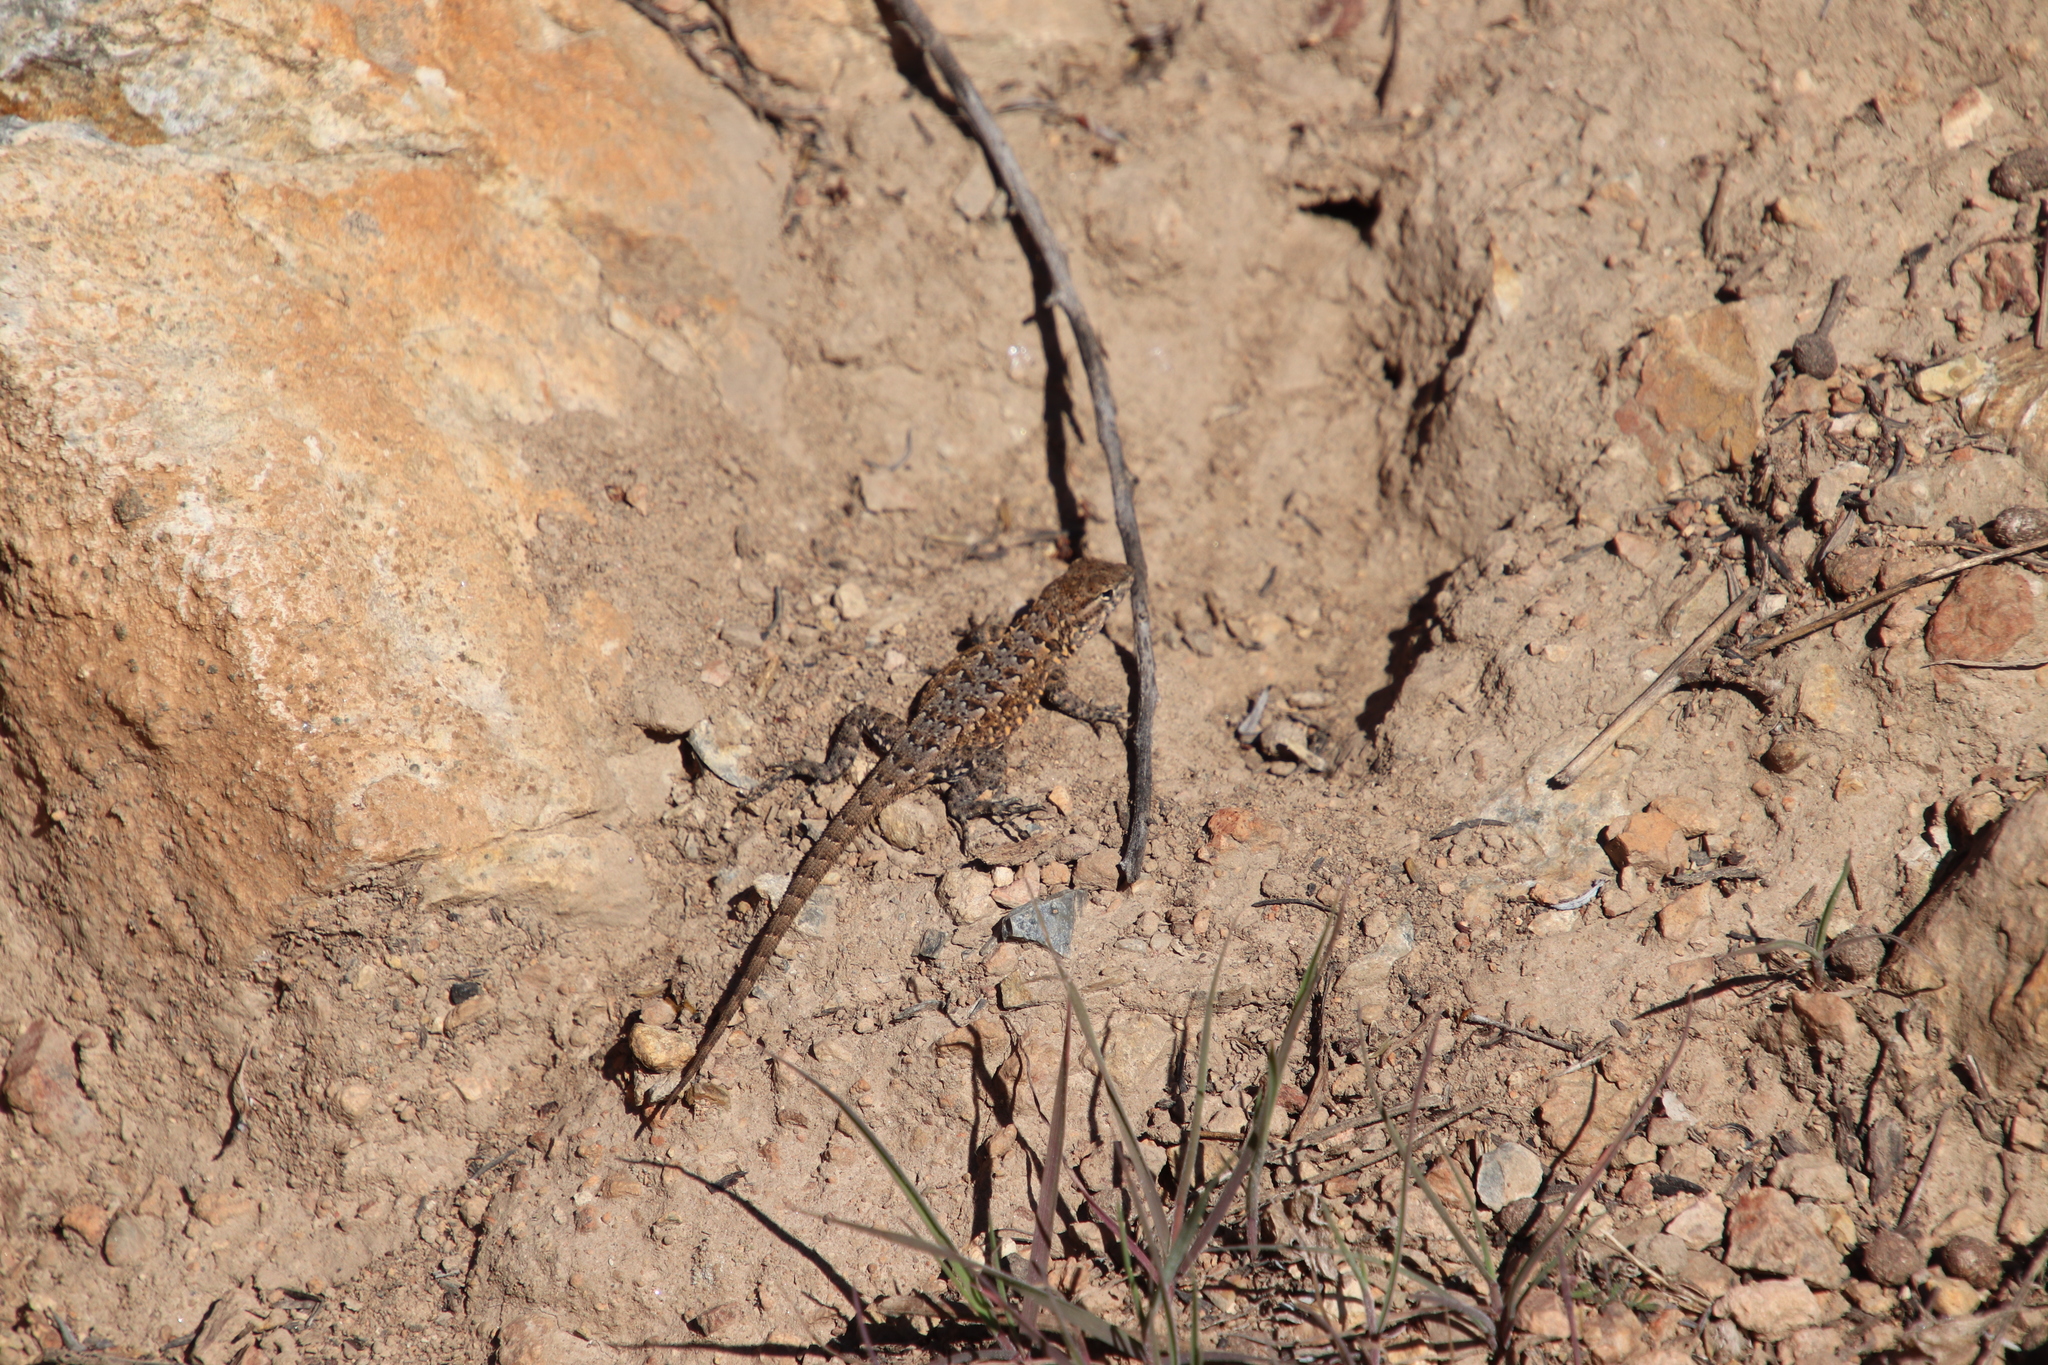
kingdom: Animalia
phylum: Chordata
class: Squamata
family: Phrynosomatidae
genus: Uta
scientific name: Uta stansburiana
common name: Side-blotched lizard
